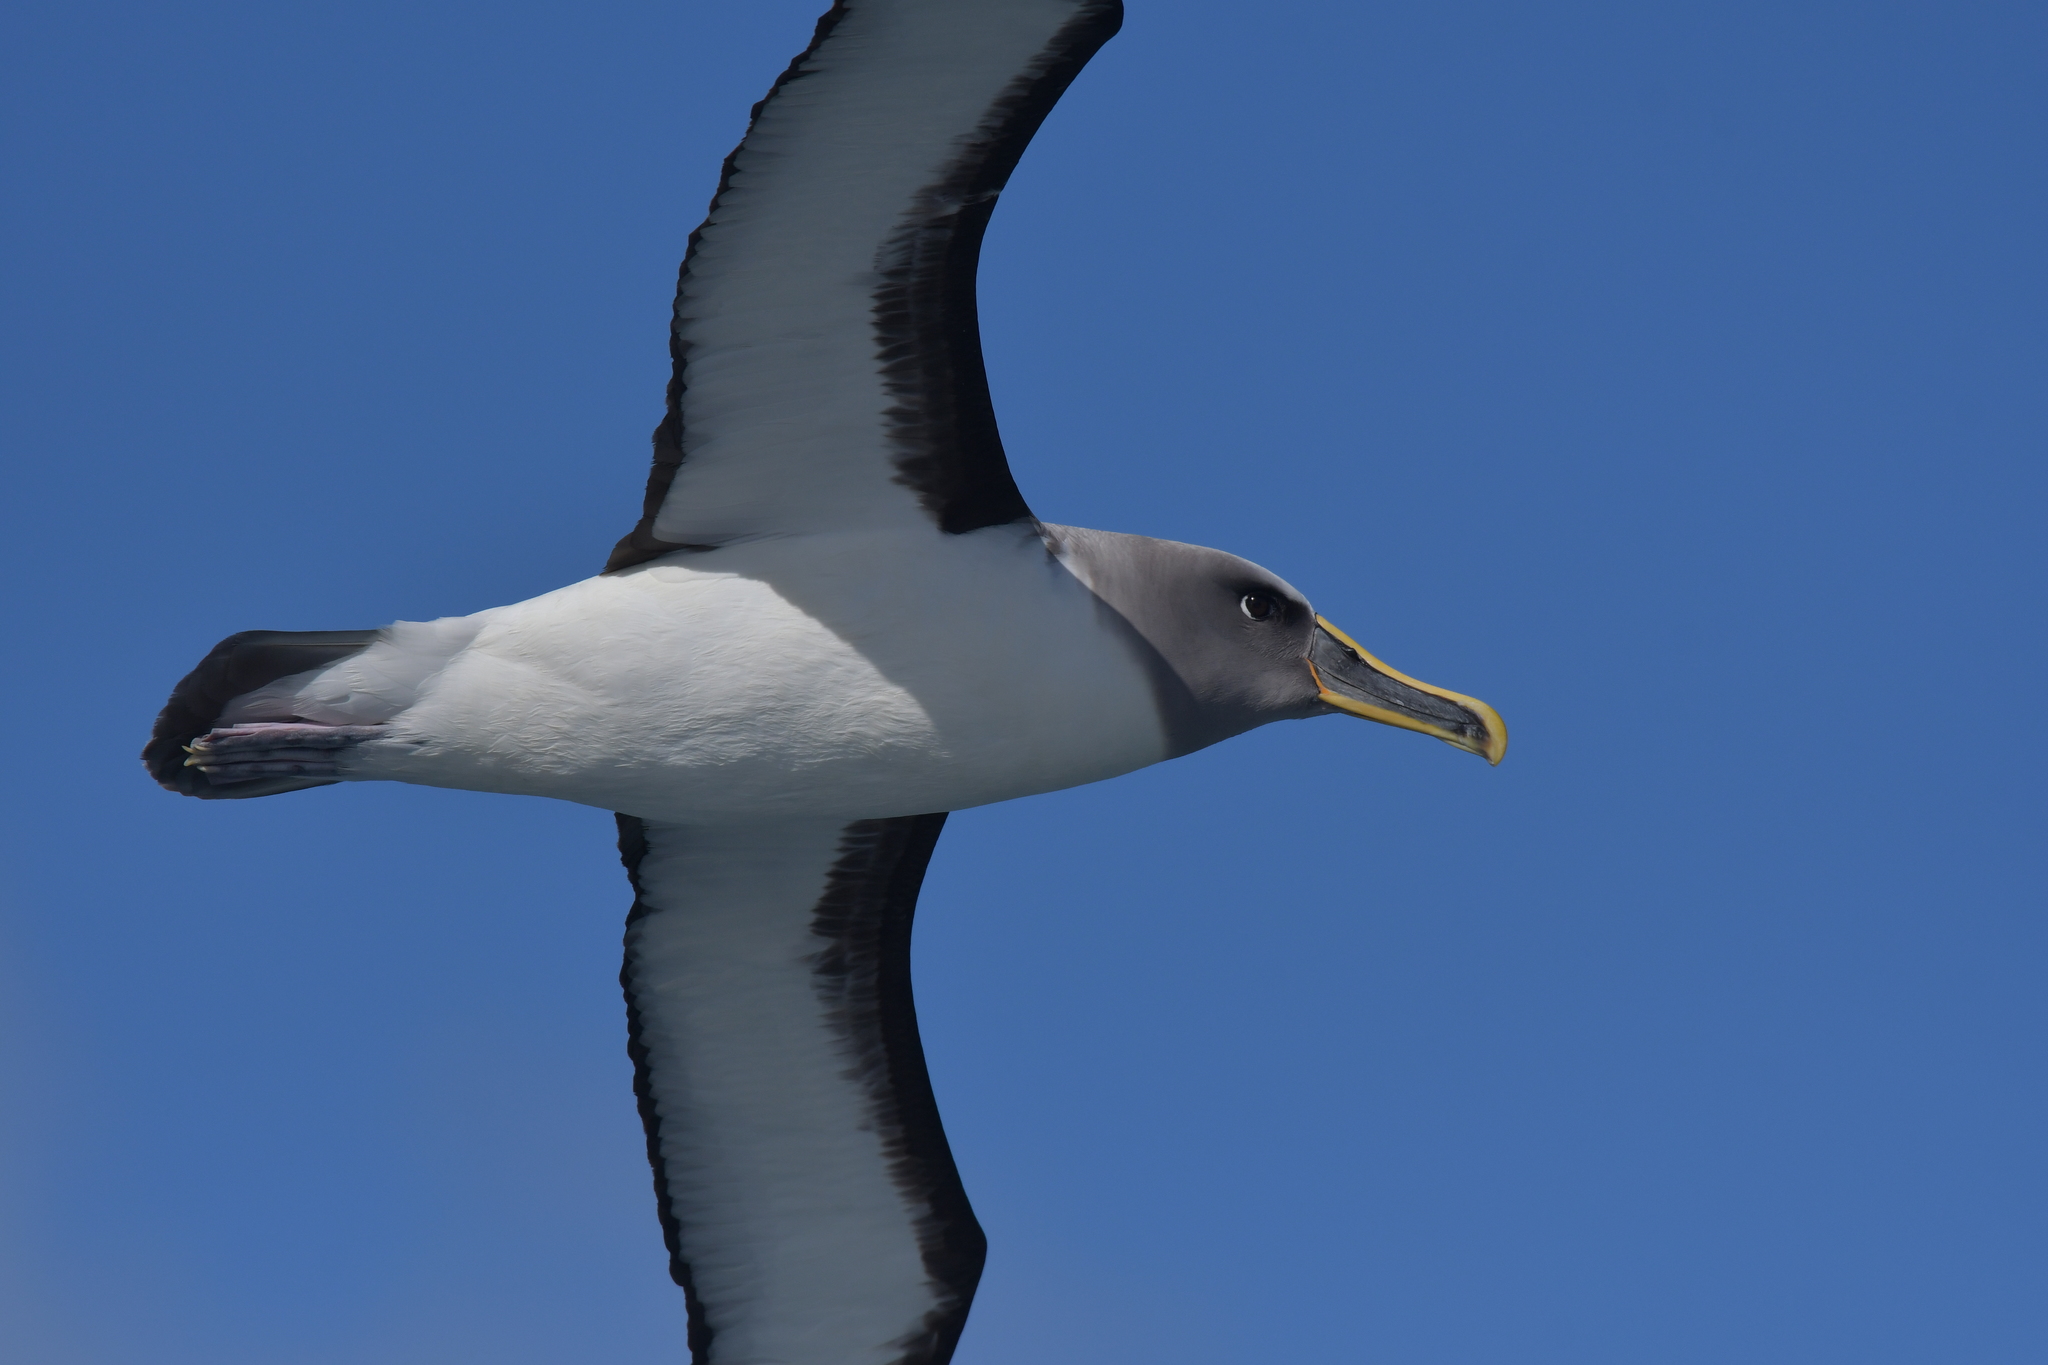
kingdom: Animalia
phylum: Chordata
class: Aves
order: Procellariiformes
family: Diomedeidae
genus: Thalassarche
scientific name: Thalassarche bulleri
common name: Buller's albatross
